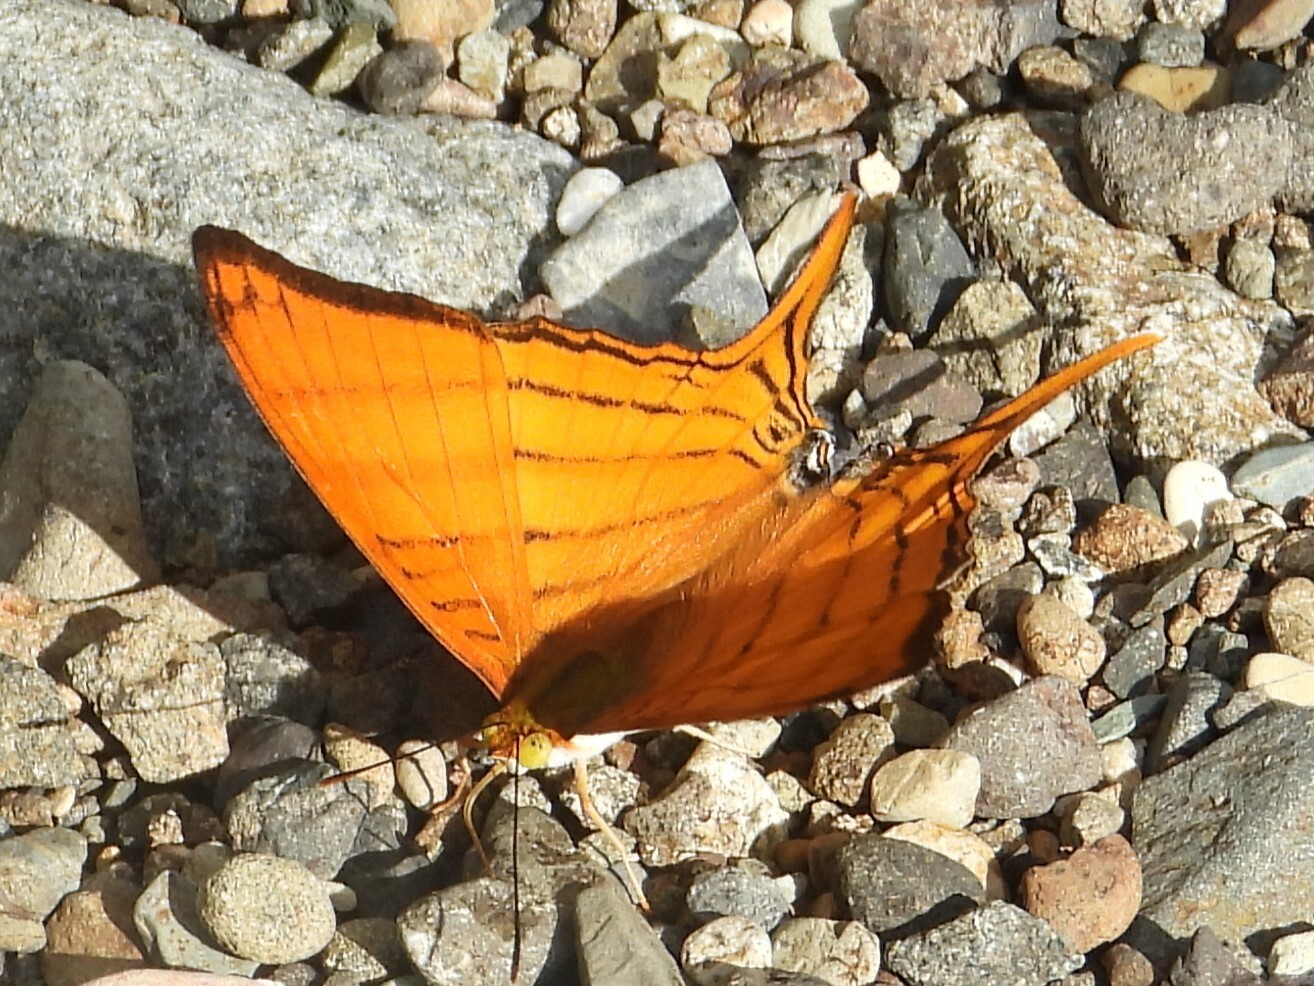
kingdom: Animalia
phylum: Arthropoda
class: Insecta
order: Lepidoptera
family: Nymphalidae
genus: Marpesia
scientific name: Marpesia berania
